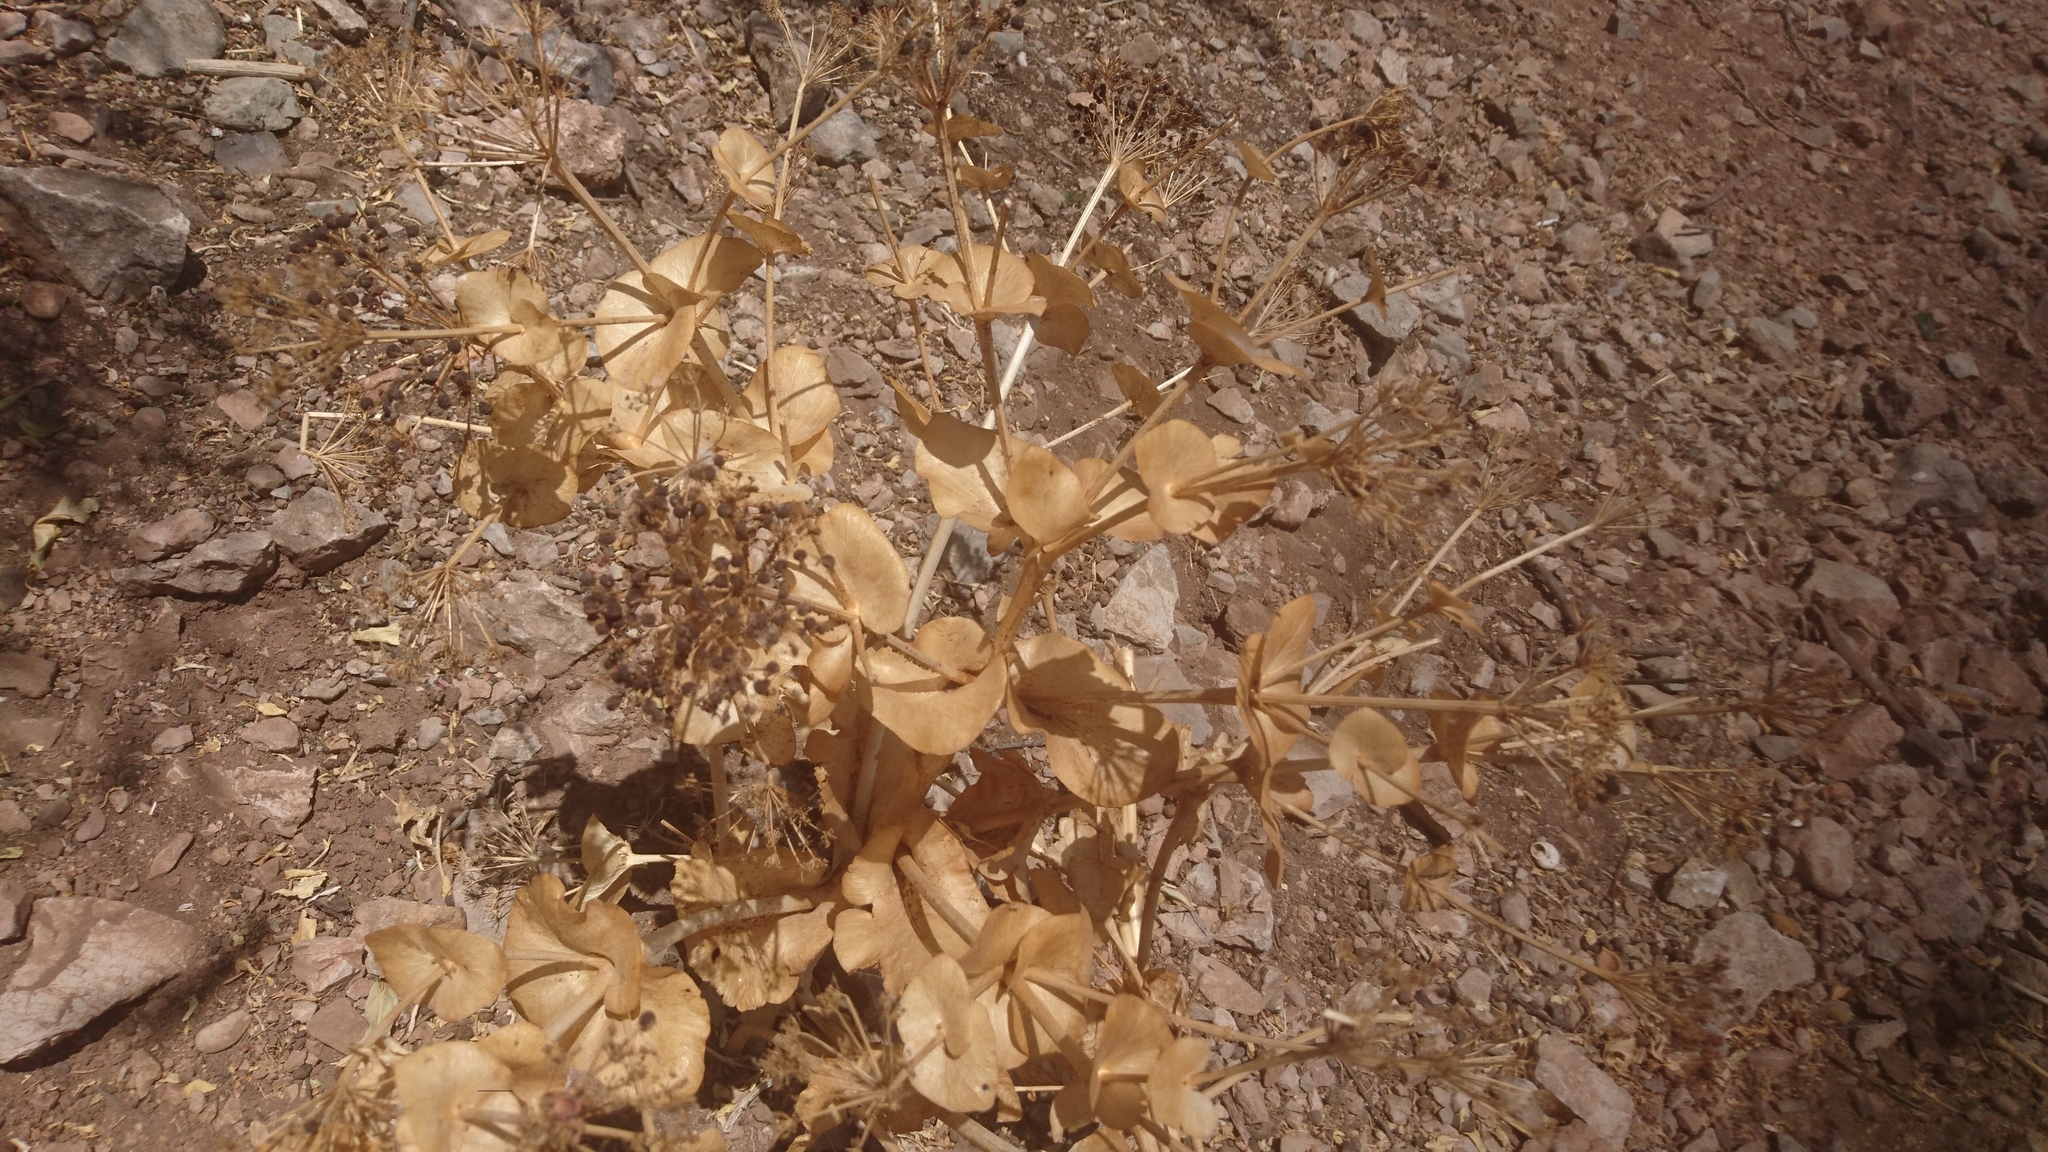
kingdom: Plantae
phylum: Tracheophyta
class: Magnoliopsida
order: Apiales
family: Apiaceae
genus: Smyrnium
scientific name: Smyrnium cordifolium
